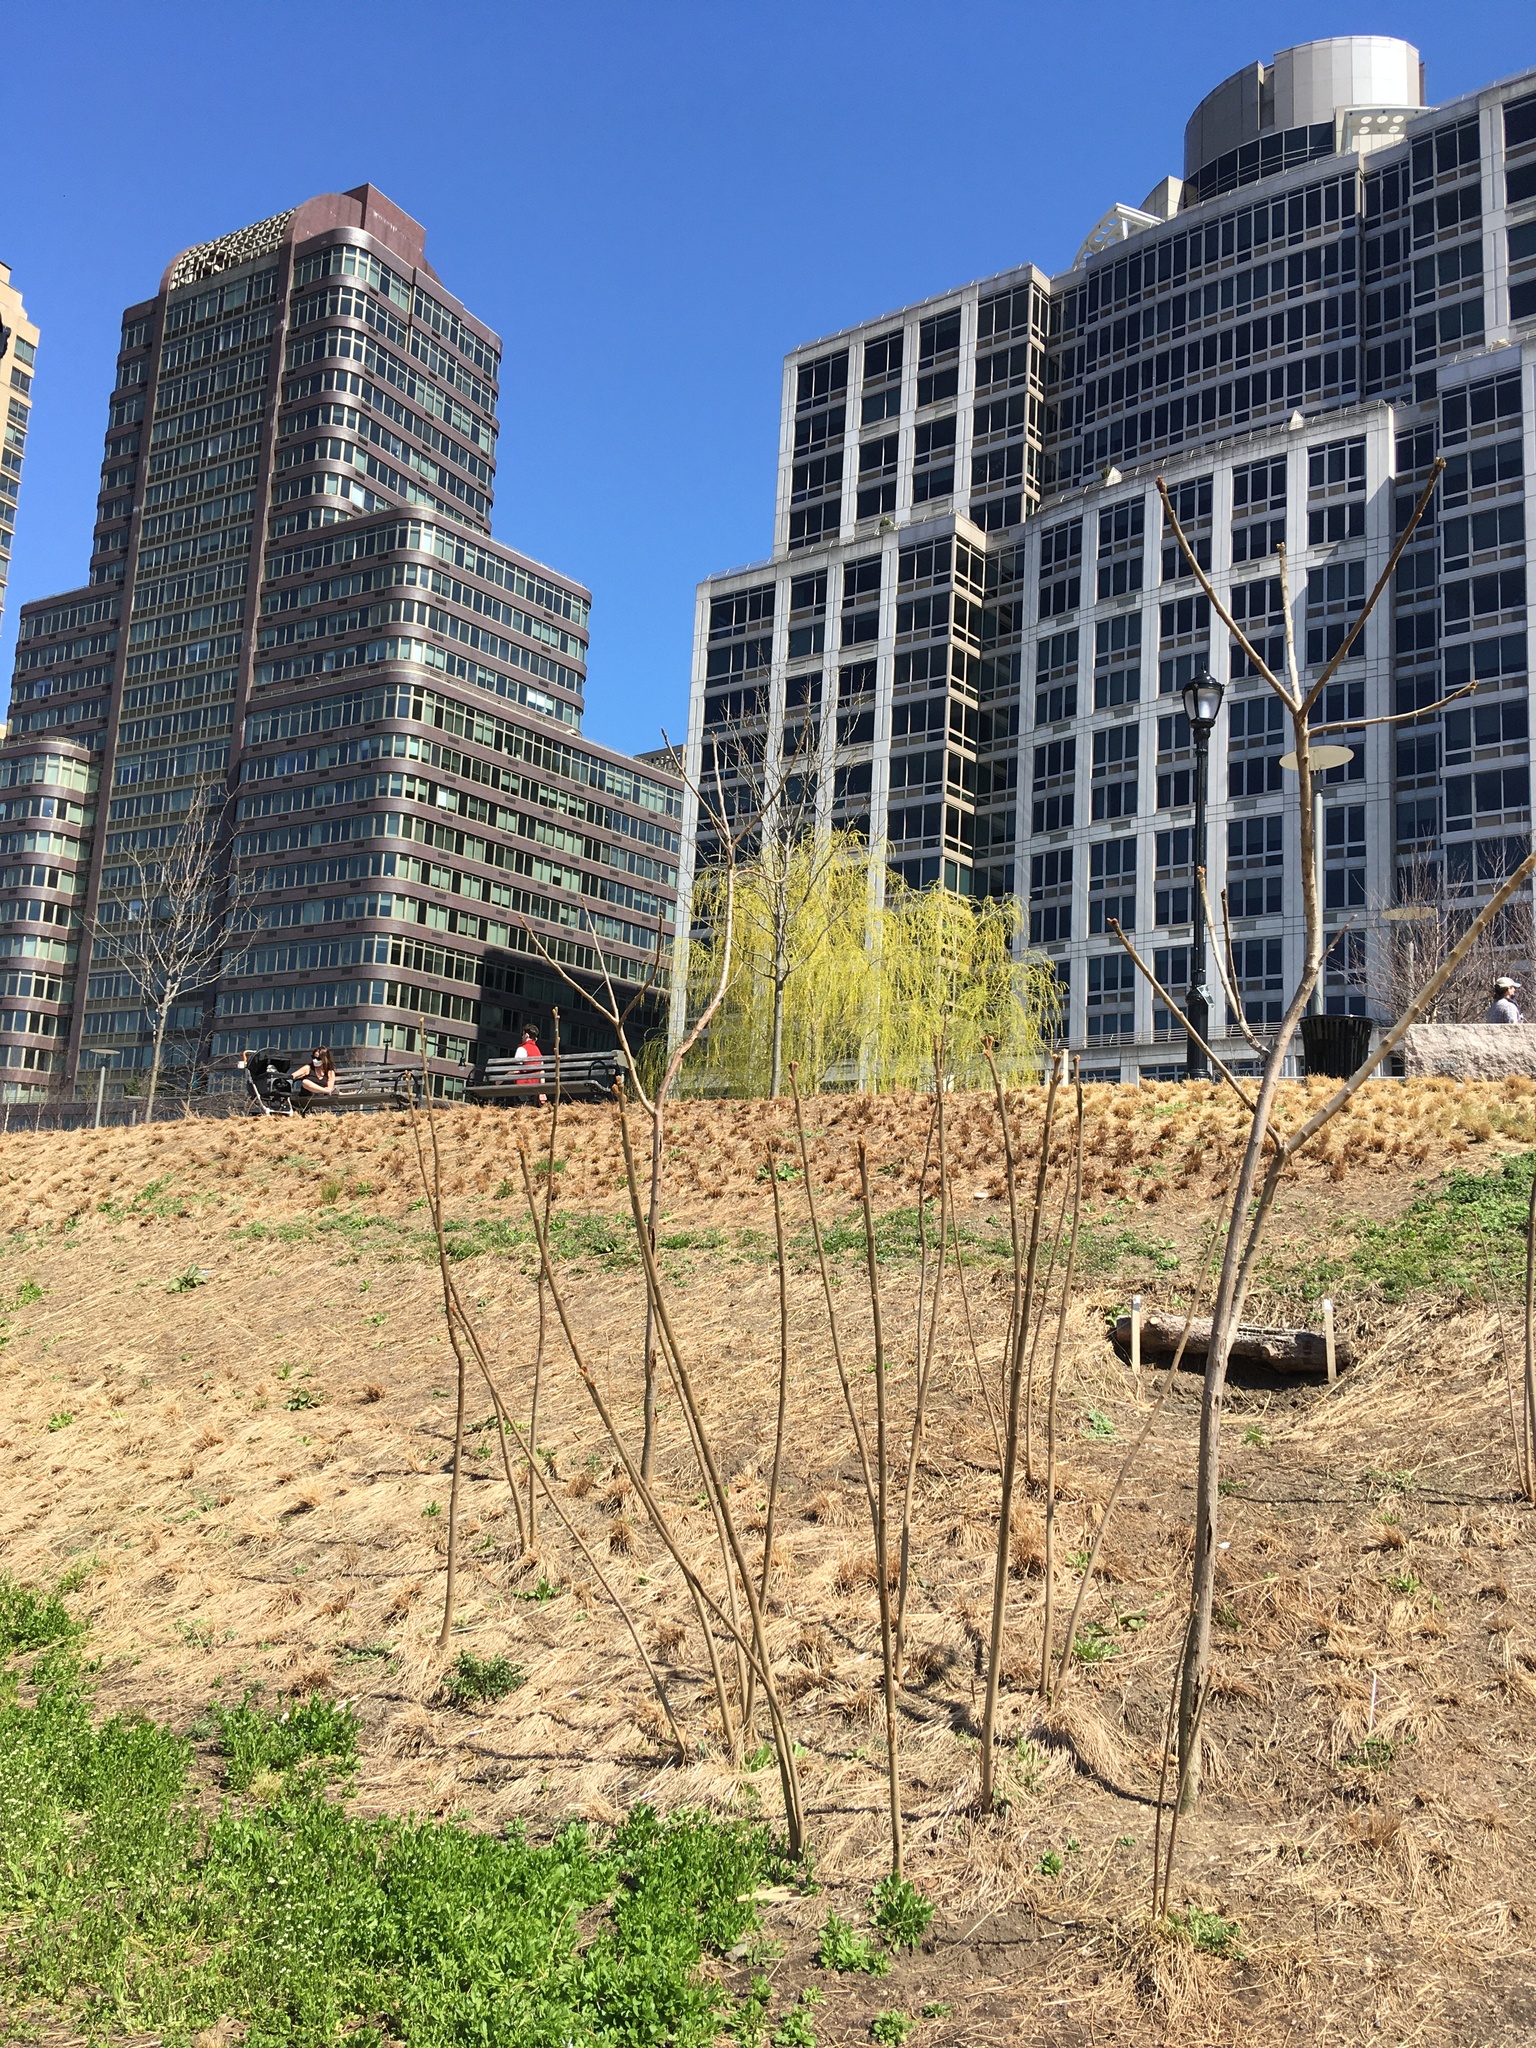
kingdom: Plantae
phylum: Tracheophyta
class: Magnoliopsida
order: Sapindales
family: Anacardiaceae
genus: Rhus
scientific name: Rhus typhina
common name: Staghorn sumac
